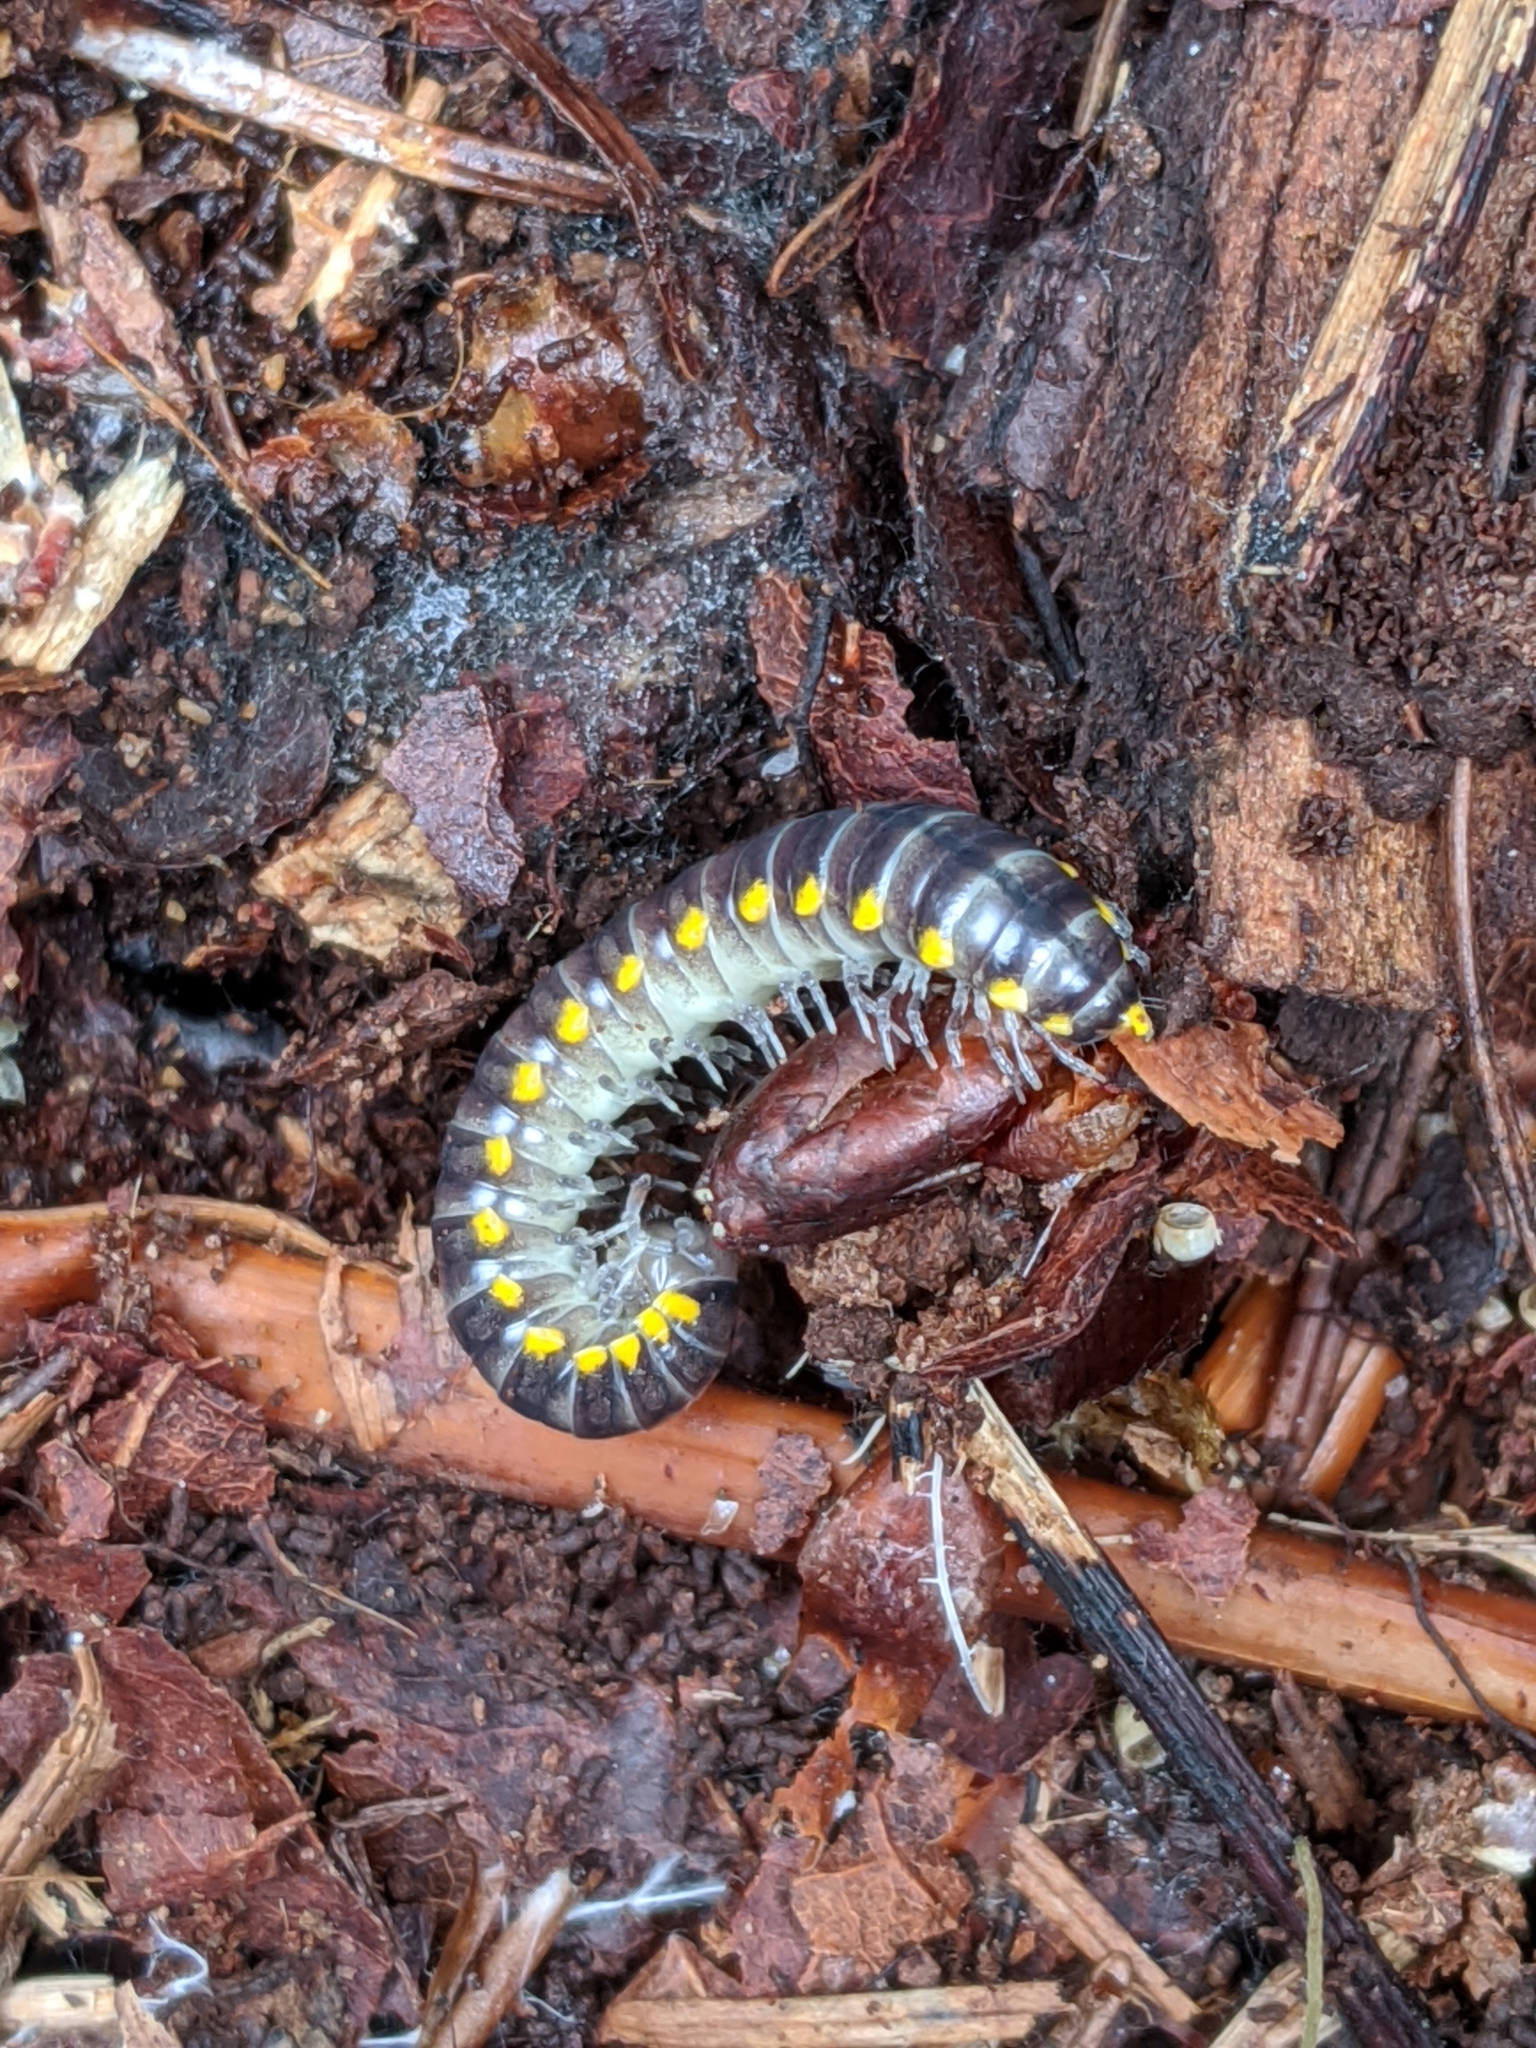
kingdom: Animalia
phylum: Arthropoda
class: Diplopoda
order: Polydesmida
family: Xystodesmidae
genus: Harpaphe
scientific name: Harpaphe haydeniana
